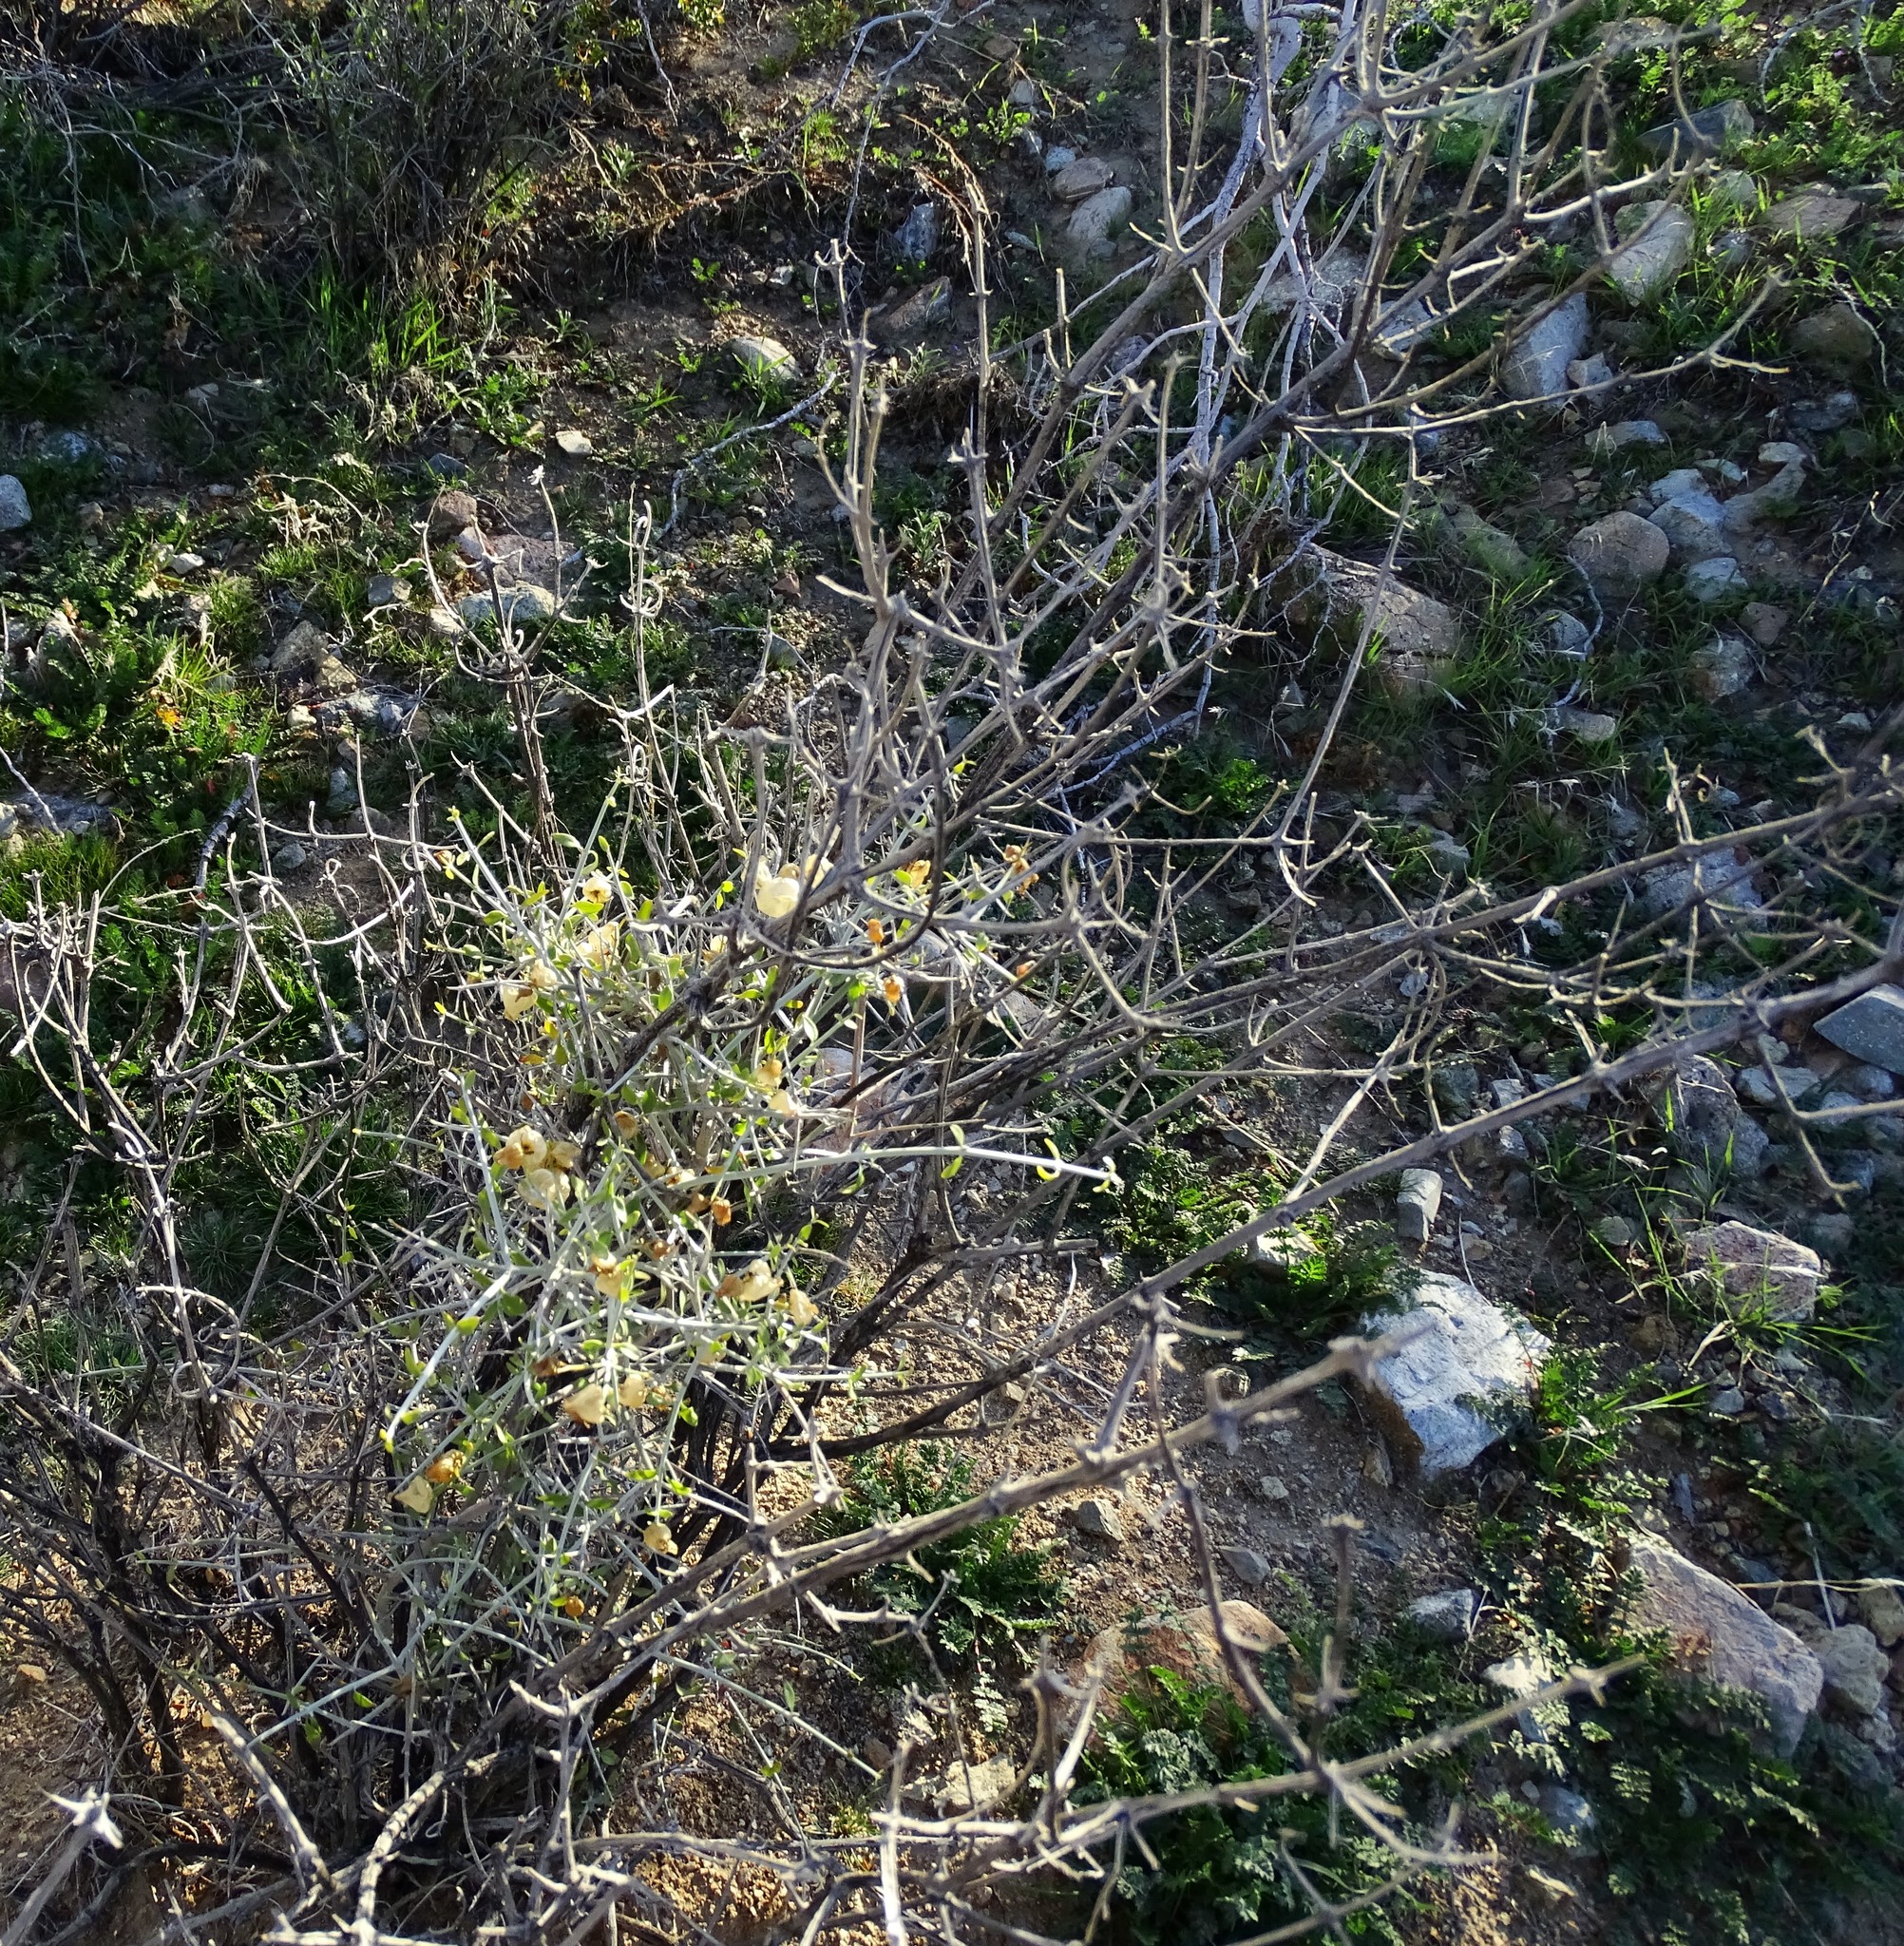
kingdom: Plantae
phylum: Tracheophyta
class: Magnoliopsida
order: Lamiales
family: Lamiaceae
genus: Scutellaria
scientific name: Scutellaria mexicana
